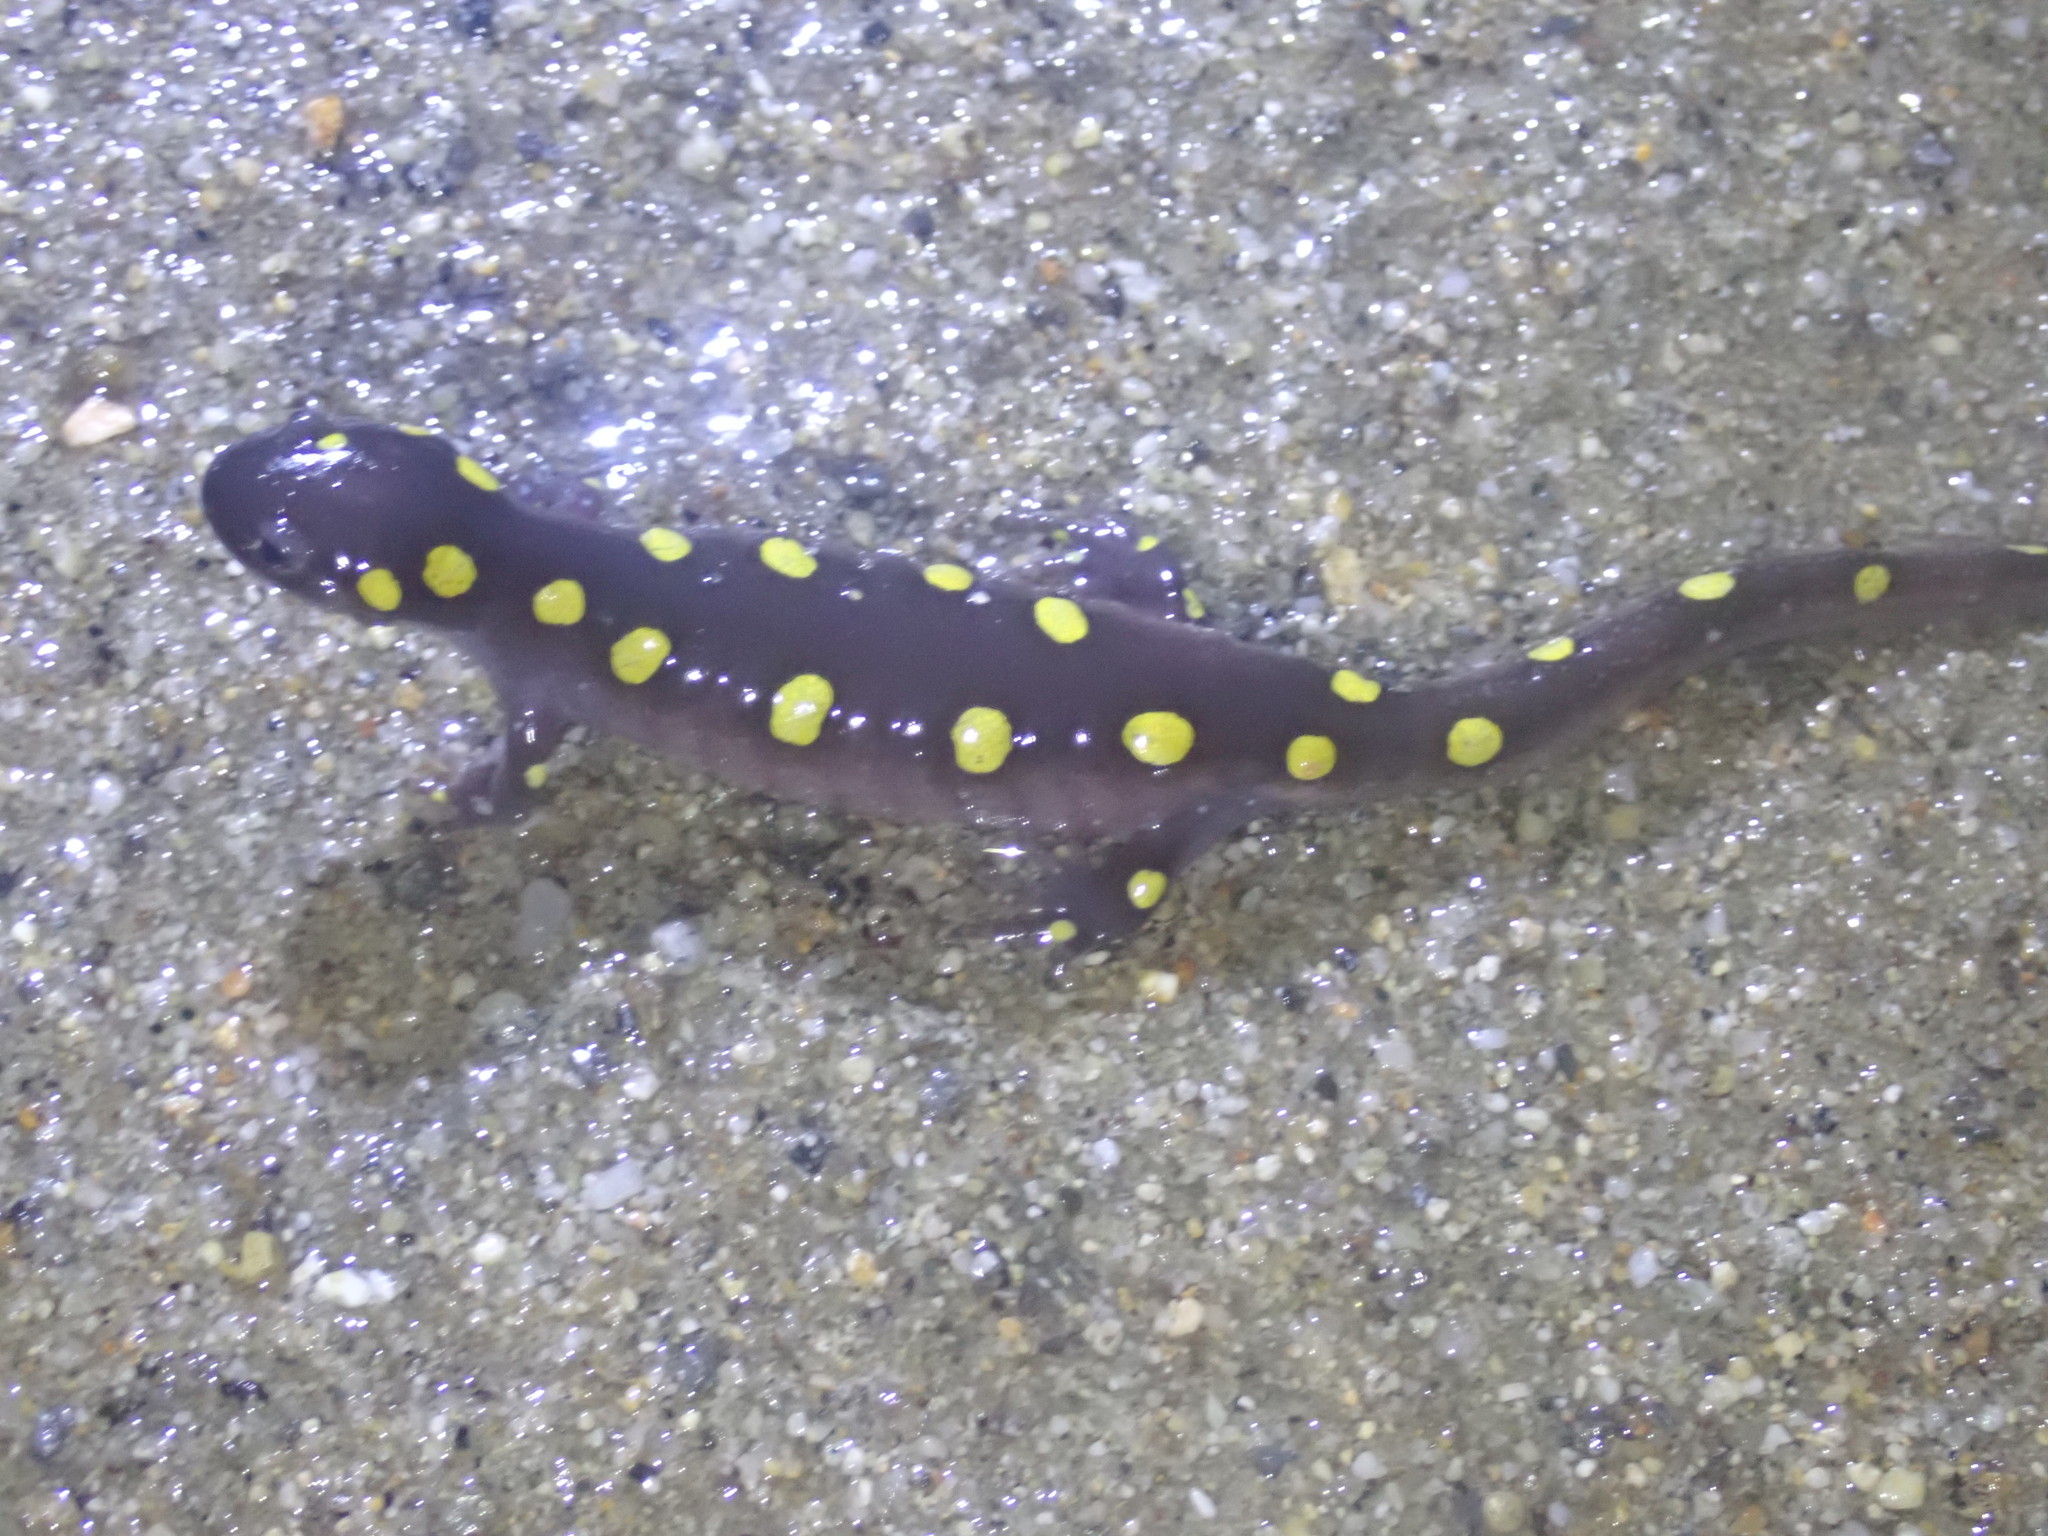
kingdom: Animalia
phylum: Chordata
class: Amphibia
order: Caudata
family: Ambystomatidae
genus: Ambystoma
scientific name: Ambystoma maculatum
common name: Spotted salamander
